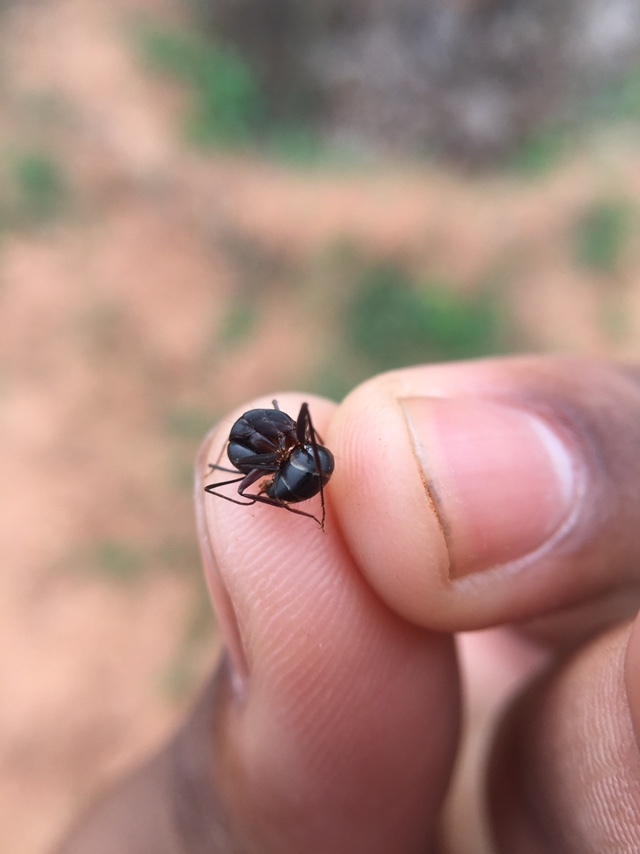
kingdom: Animalia
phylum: Arthropoda
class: Insecta
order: Hymenoptera
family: Formicidae
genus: Camponotus
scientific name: Camponotus compressus
